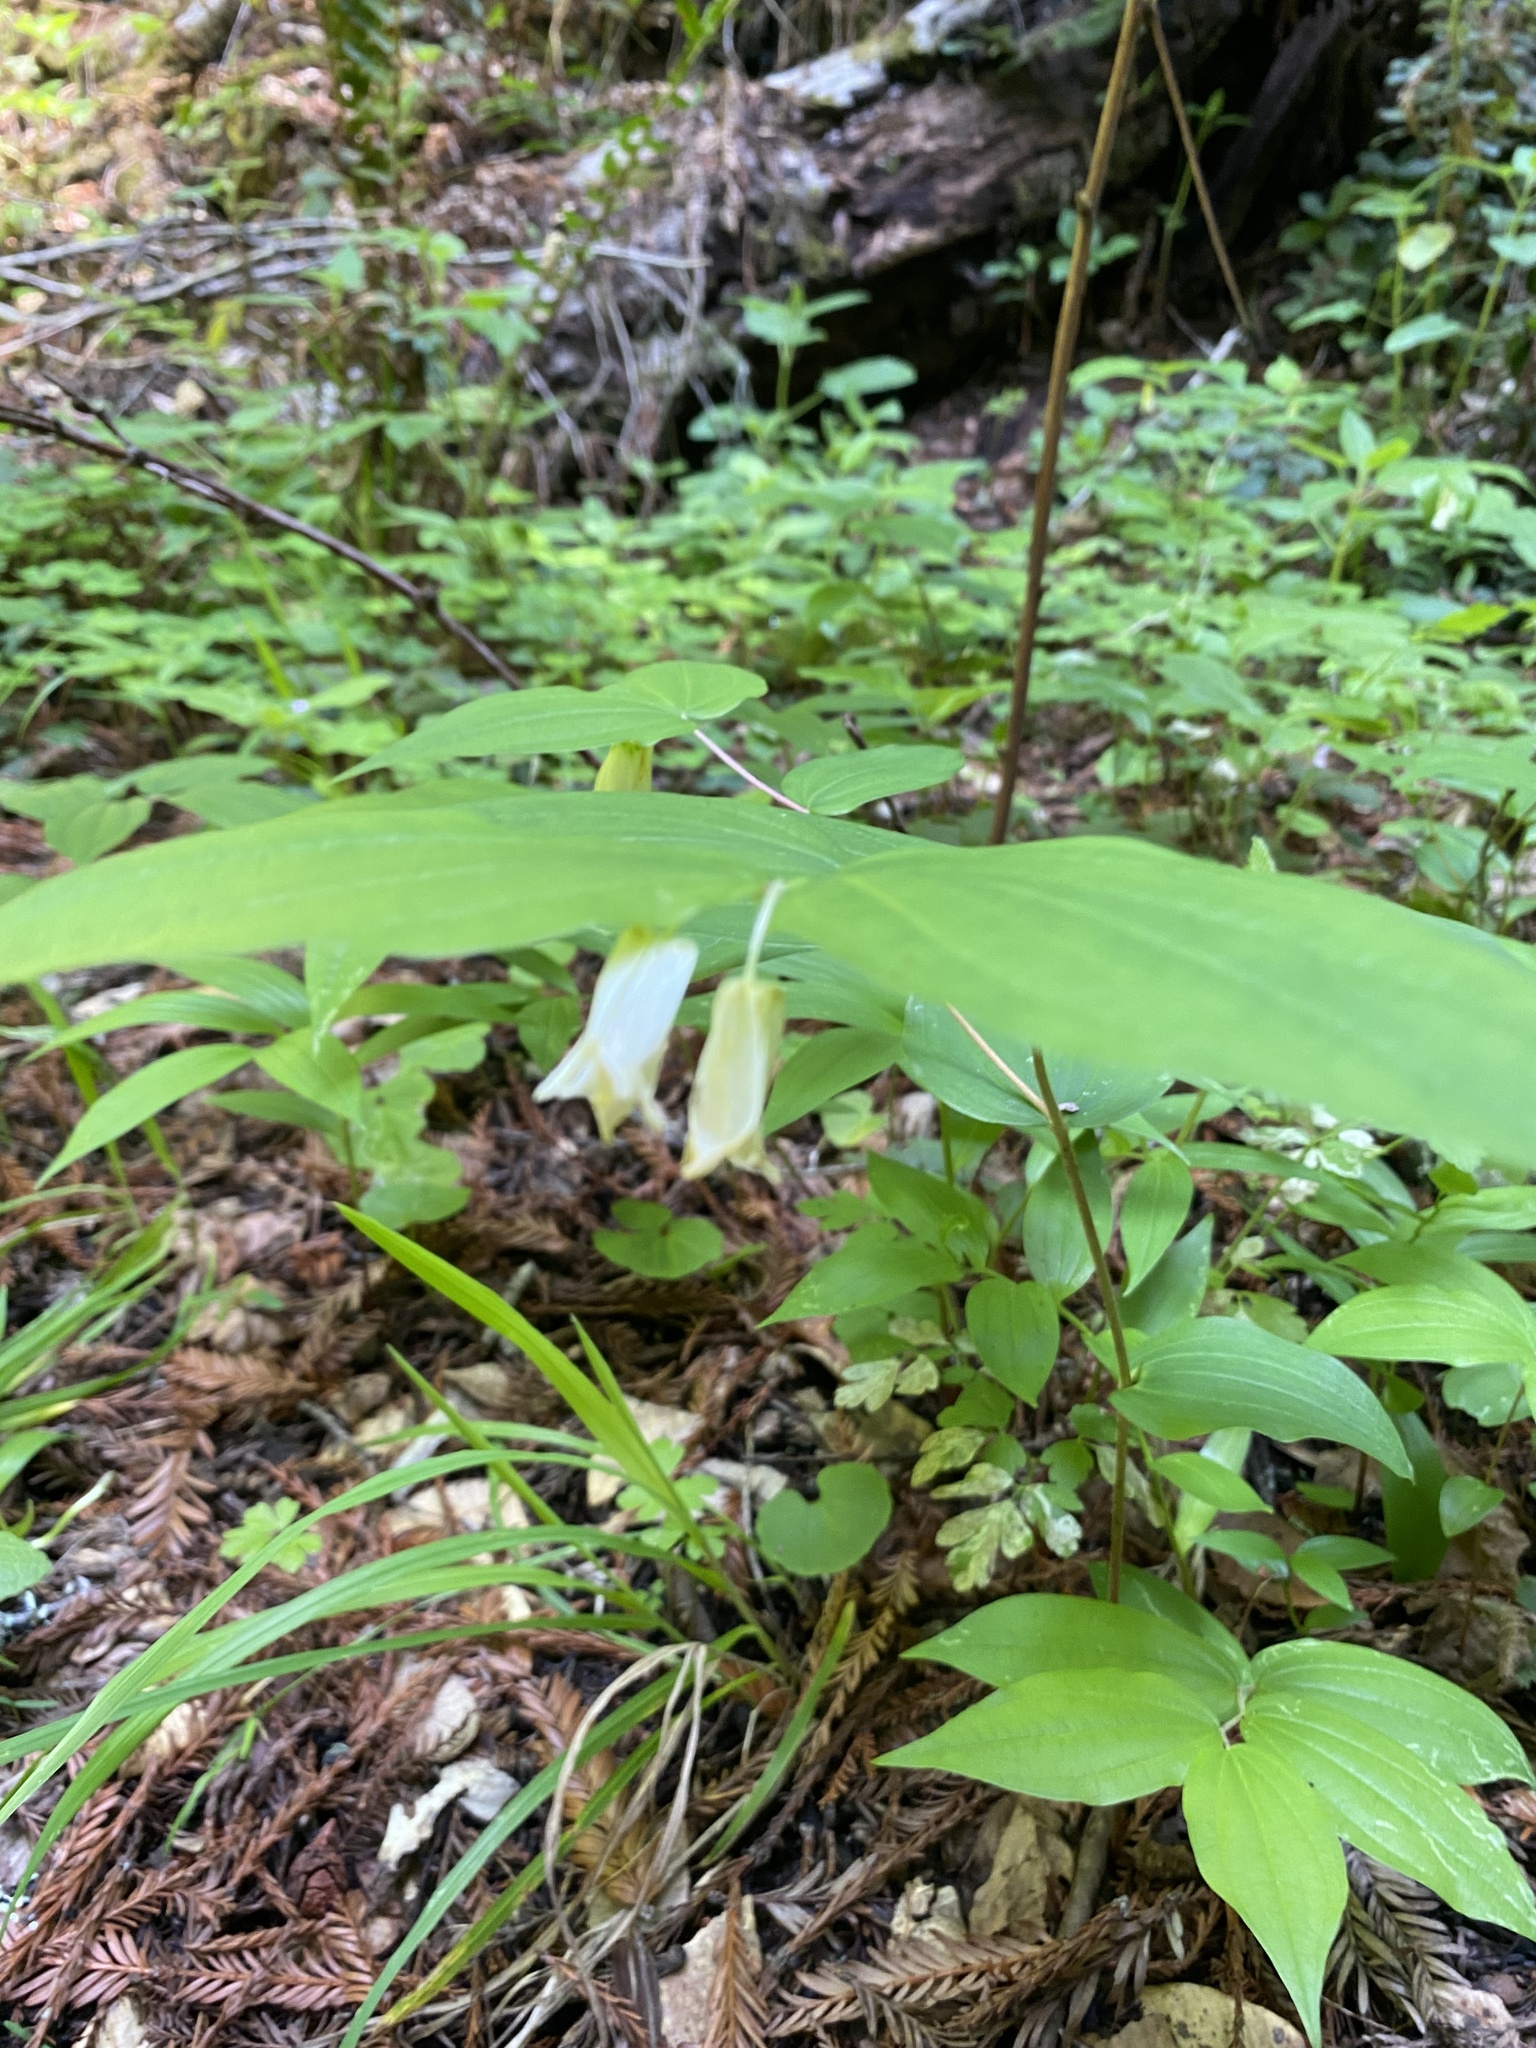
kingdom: Plantae
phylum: Tracheophyta
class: Liliopsida
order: Liliales
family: Liliaceae
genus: Prosartes
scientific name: Prosartes smithii
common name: Fairy-lantern
